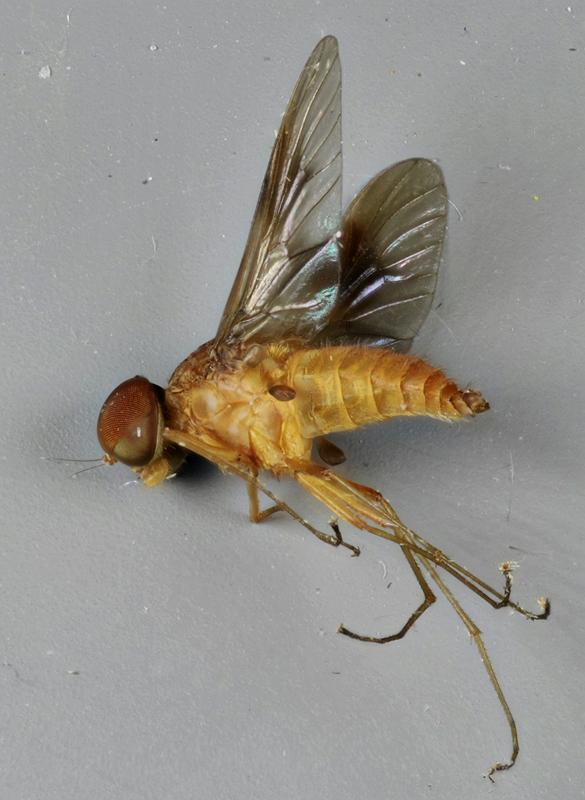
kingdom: Animalia
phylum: Arthropoda
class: Insecta
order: Diptera
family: Rhagionidae
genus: Chrysopilus
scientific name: Chrysopilus quadratus
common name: Quadrate snipe fly
